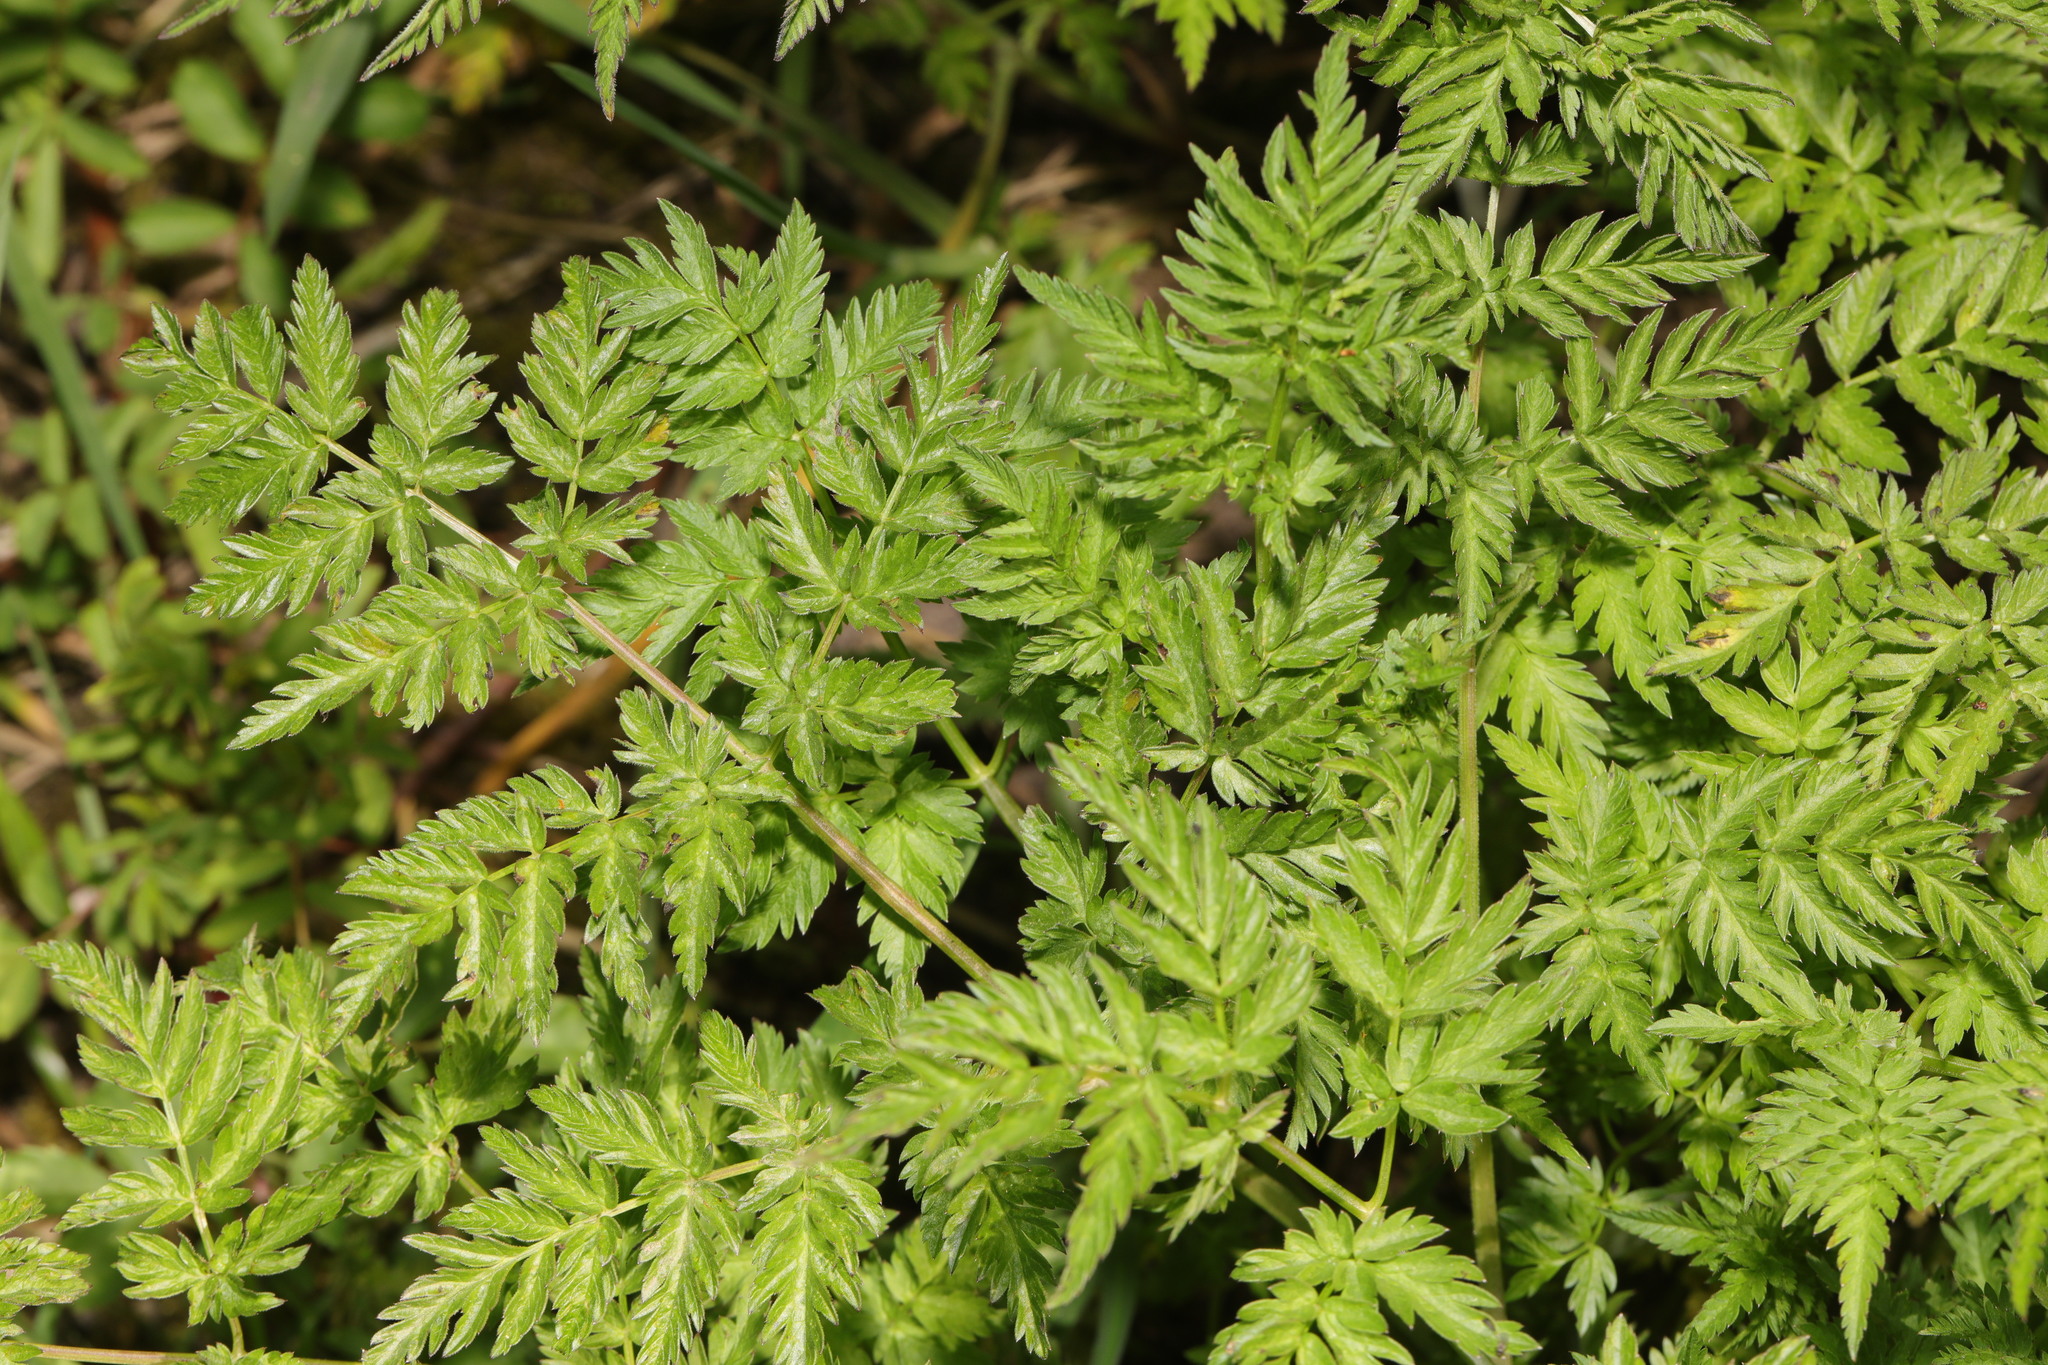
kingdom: Plantae
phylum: Tracheophyta
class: Magnoliopsida
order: Apiales
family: Apiaceae
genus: Anthriscus
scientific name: Anthriscus sylvestris
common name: Cow parsley
